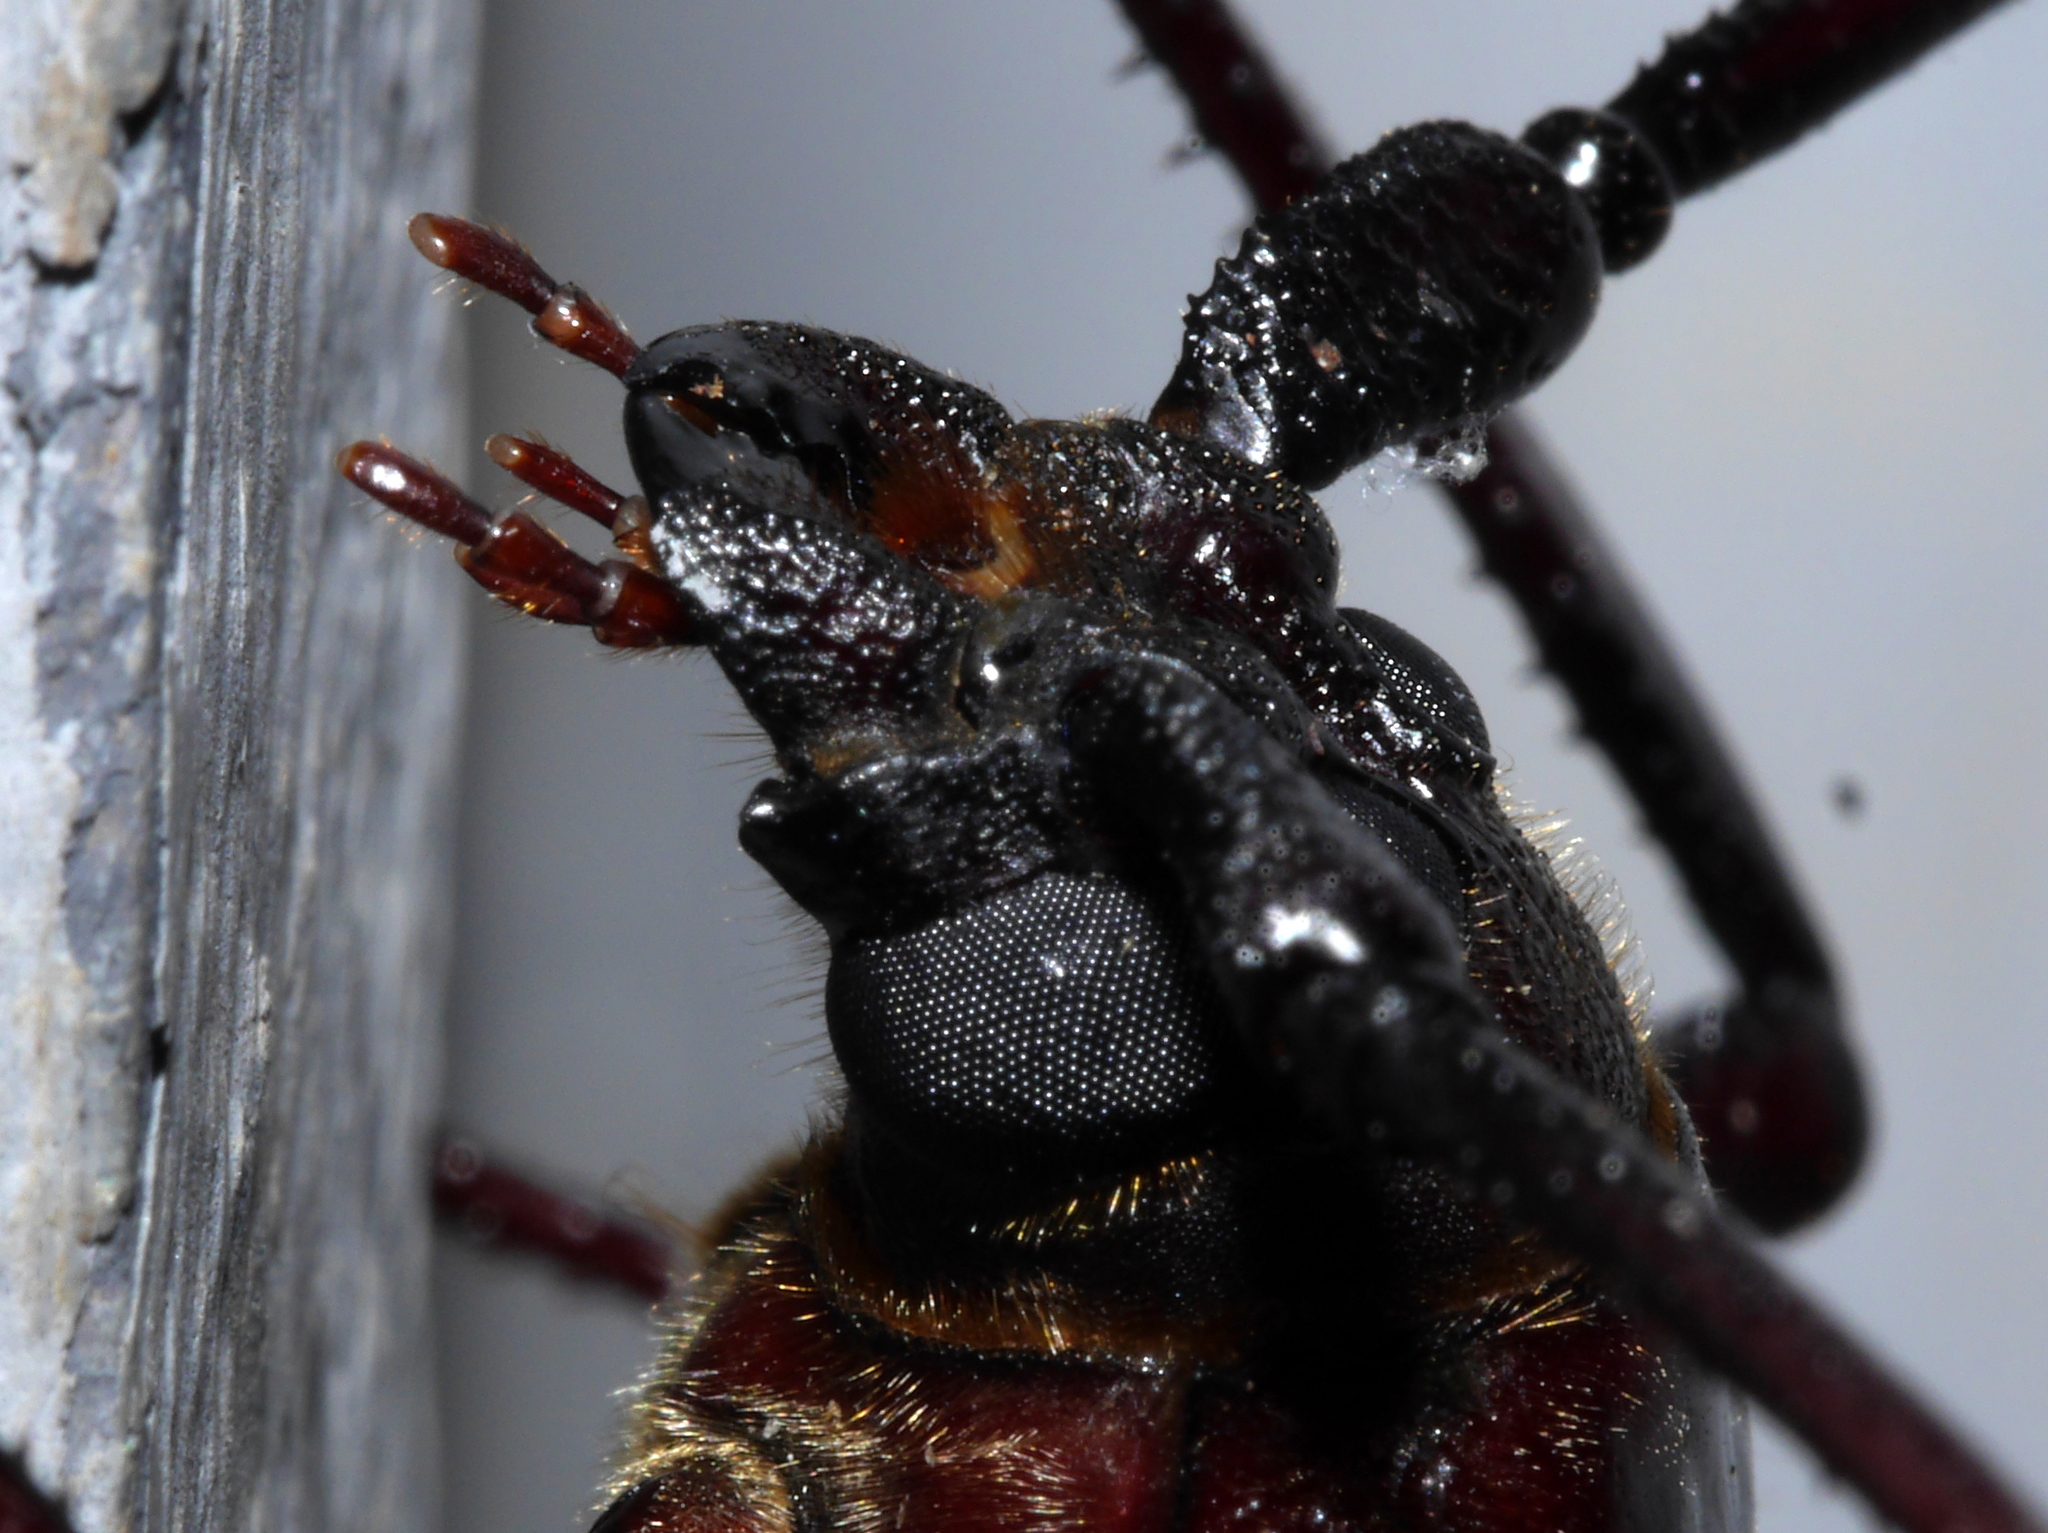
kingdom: Animalia
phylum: Arthropoda
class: Insecta
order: Coleoptera
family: Cerambycidae
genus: Macrotoma
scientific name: Macrotoma serripes
